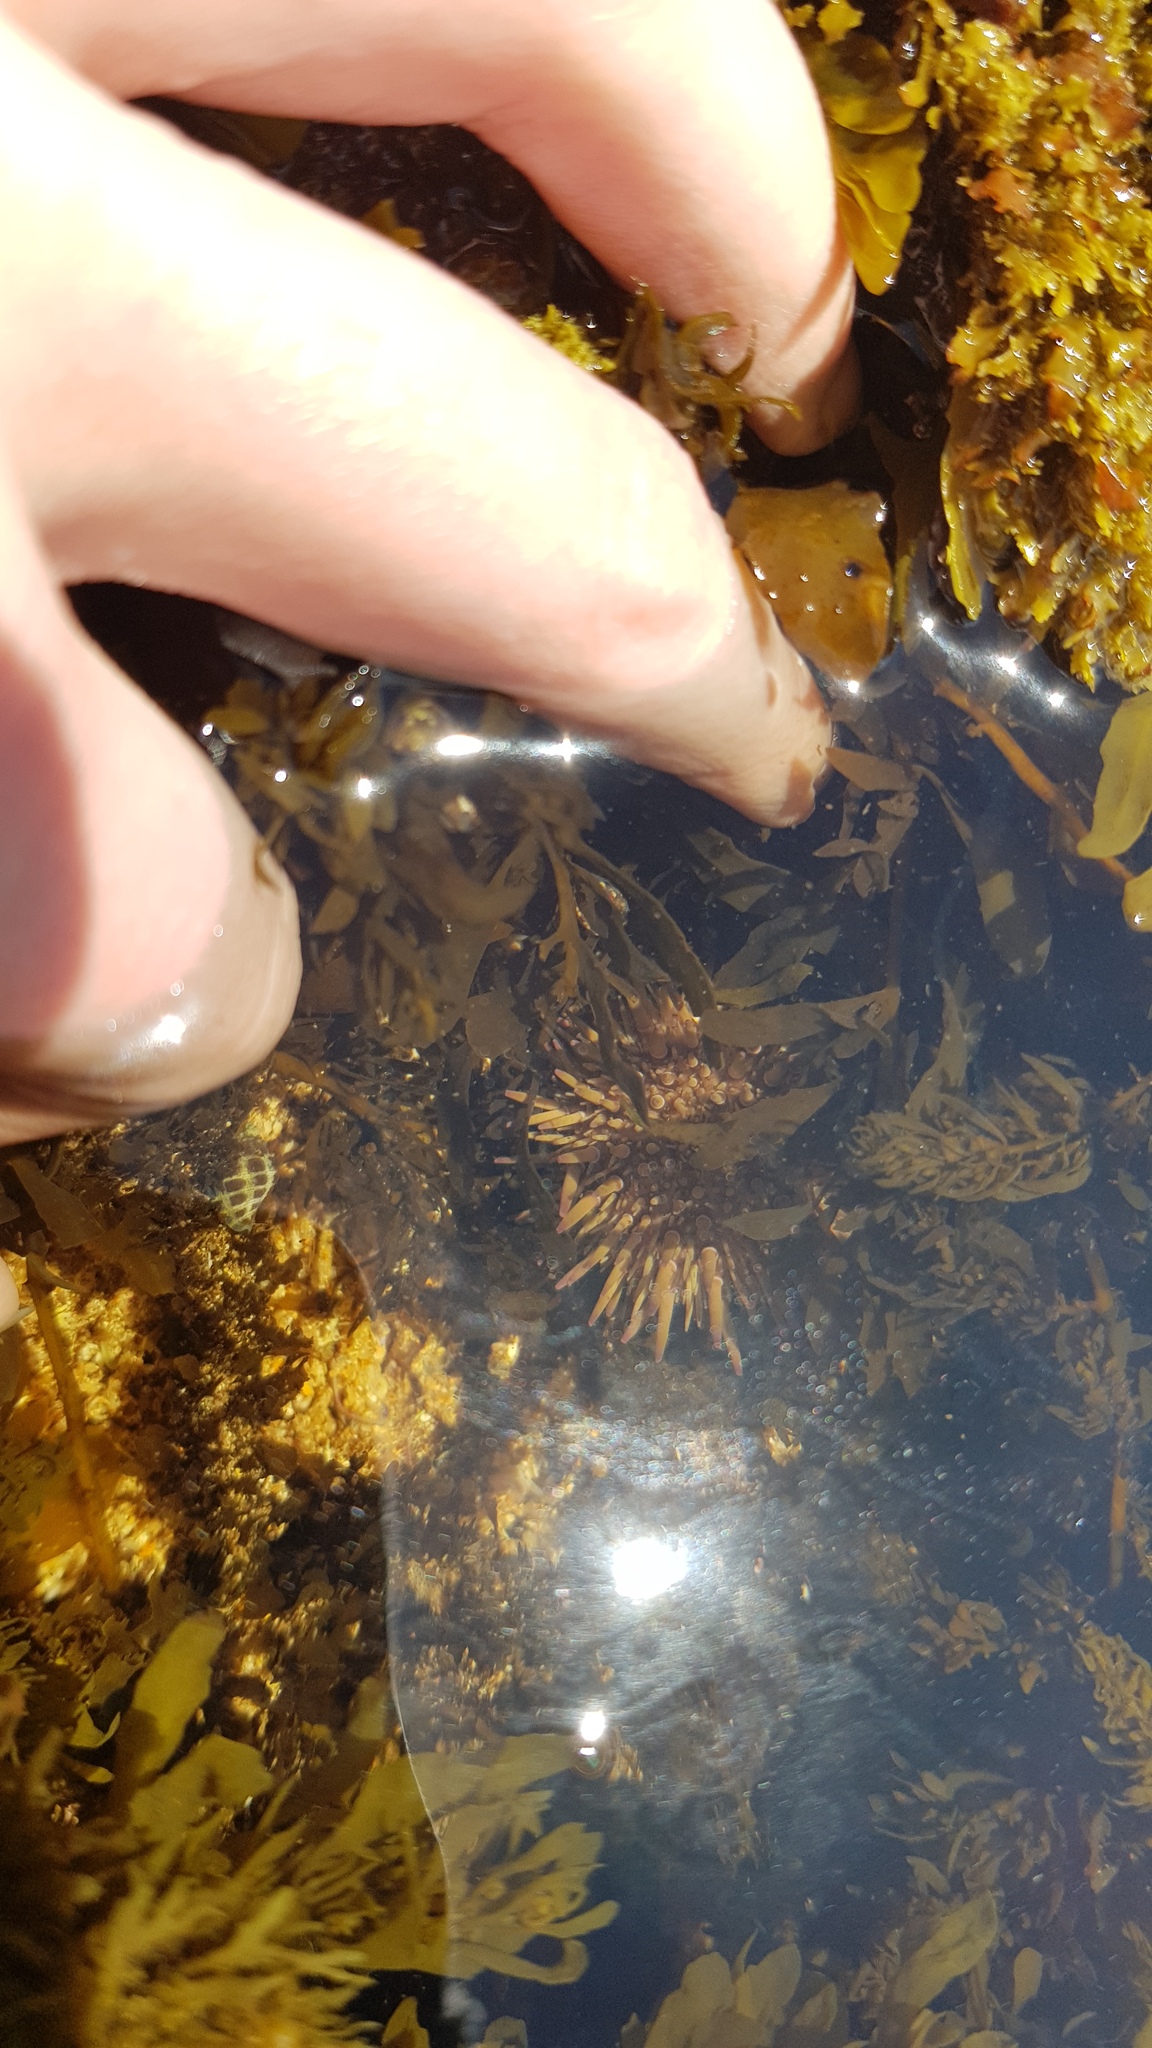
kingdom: Animalia
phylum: Echinodermata
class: Echinoidea
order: Camarodonta
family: Echinometridae
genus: Heliocidaris
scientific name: Heliocidaris erythrogramma
